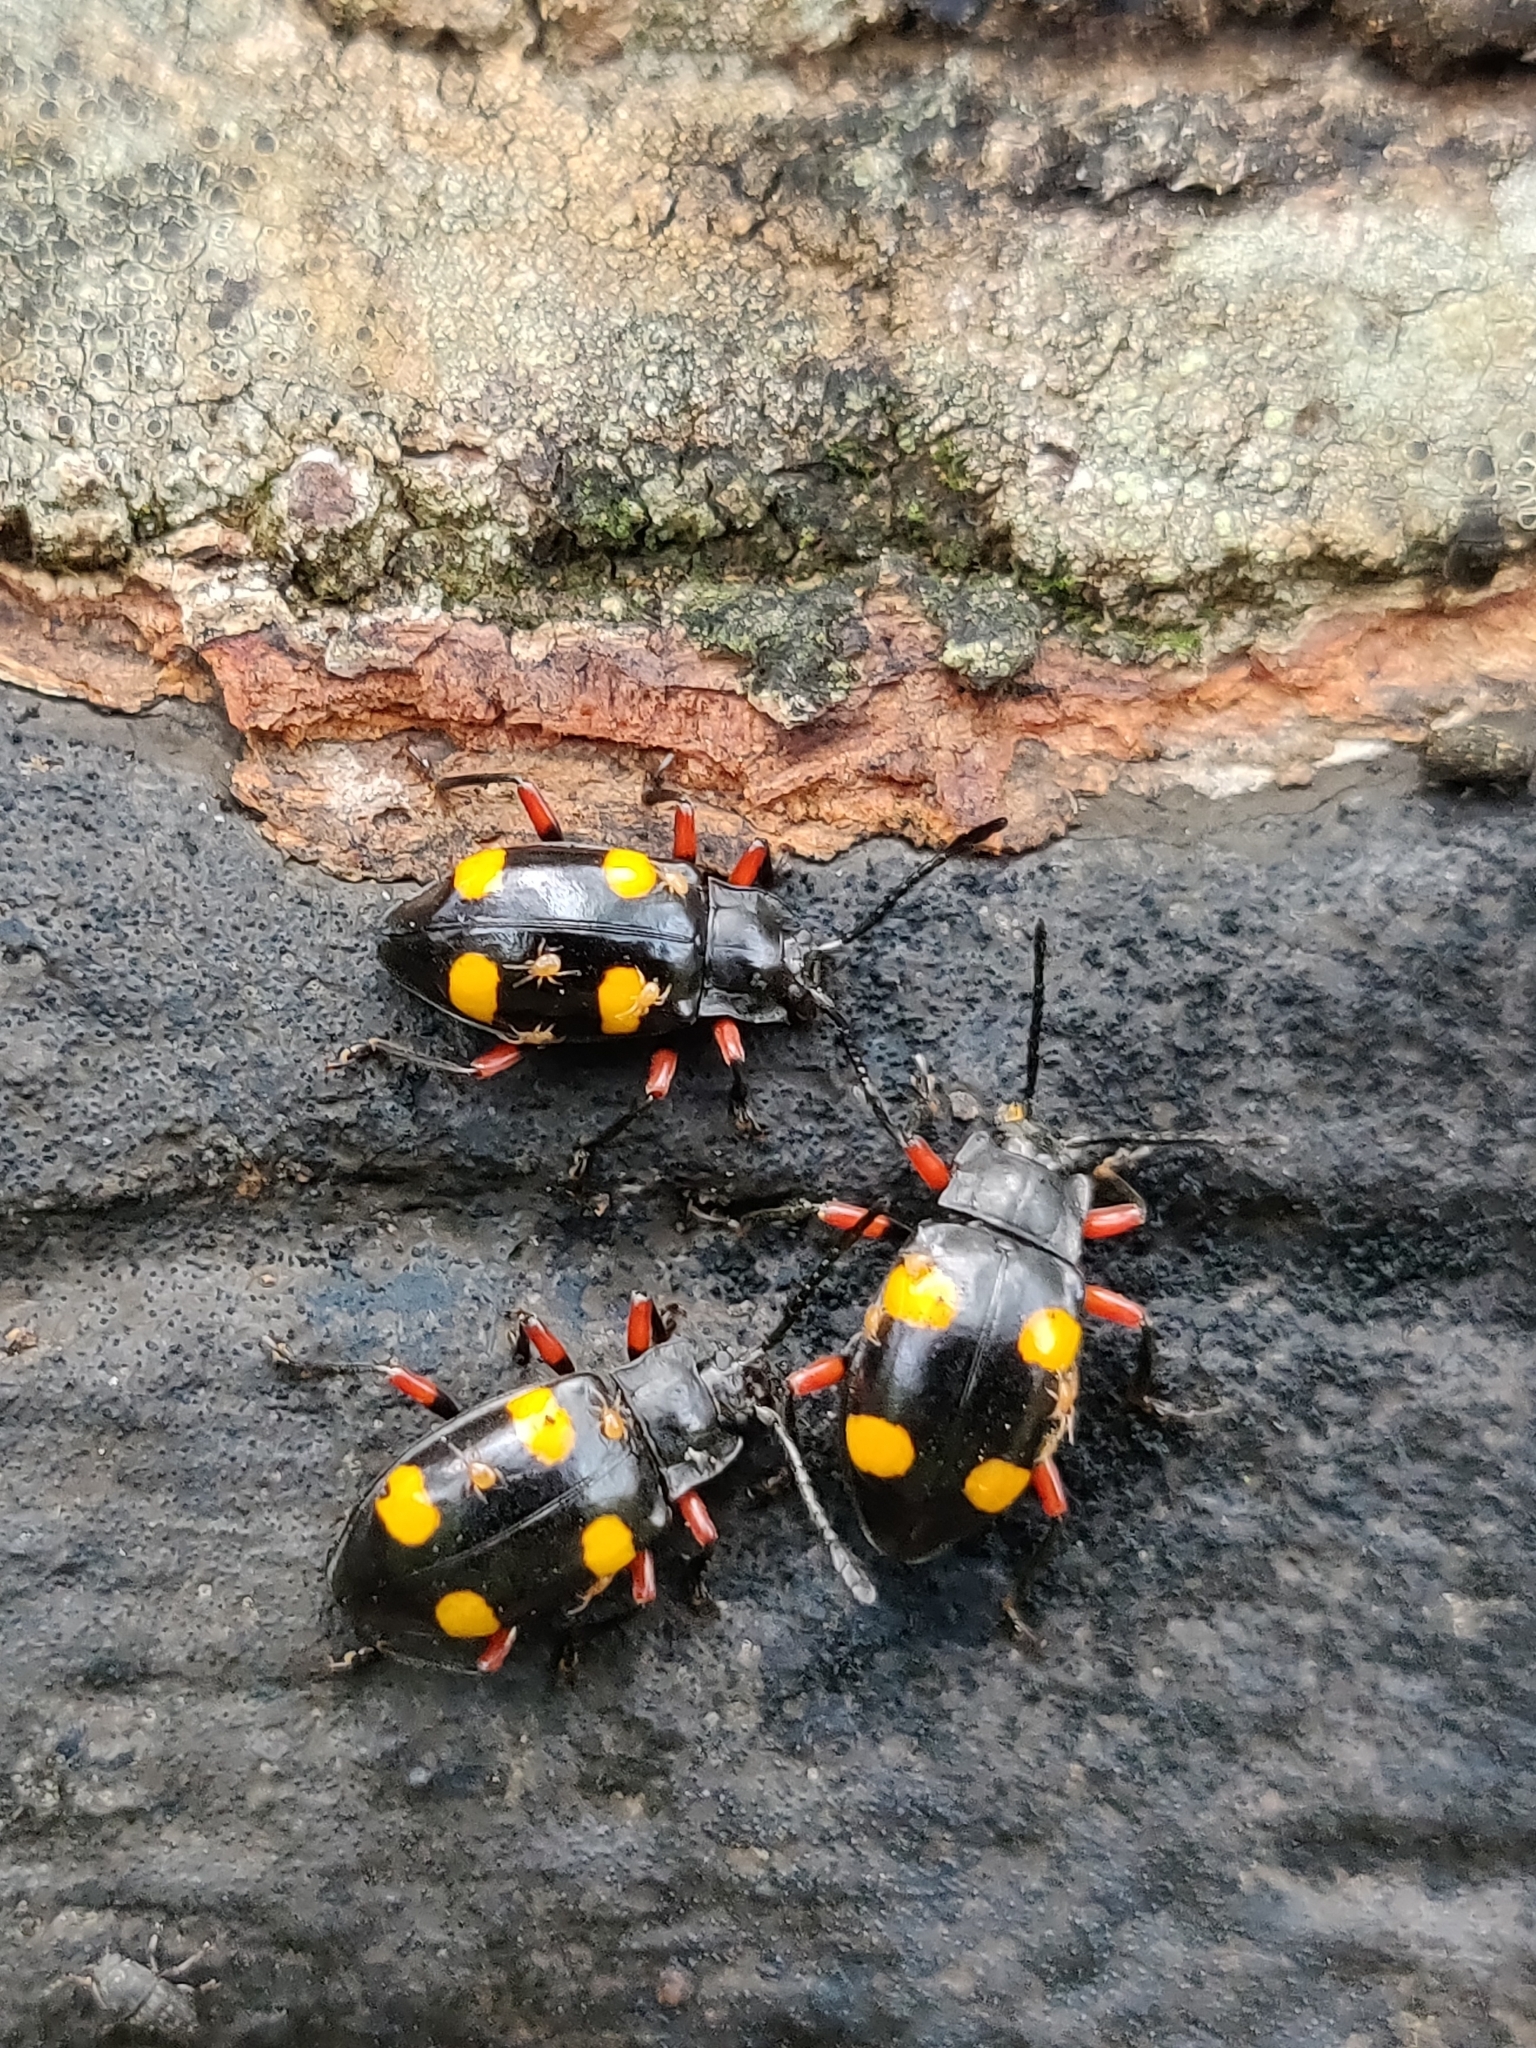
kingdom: Animalia
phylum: Arthropoda
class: Insecta
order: Coleoptera
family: Endomychidae
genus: Eumorphus
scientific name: Eumorphus quadriguttatus
